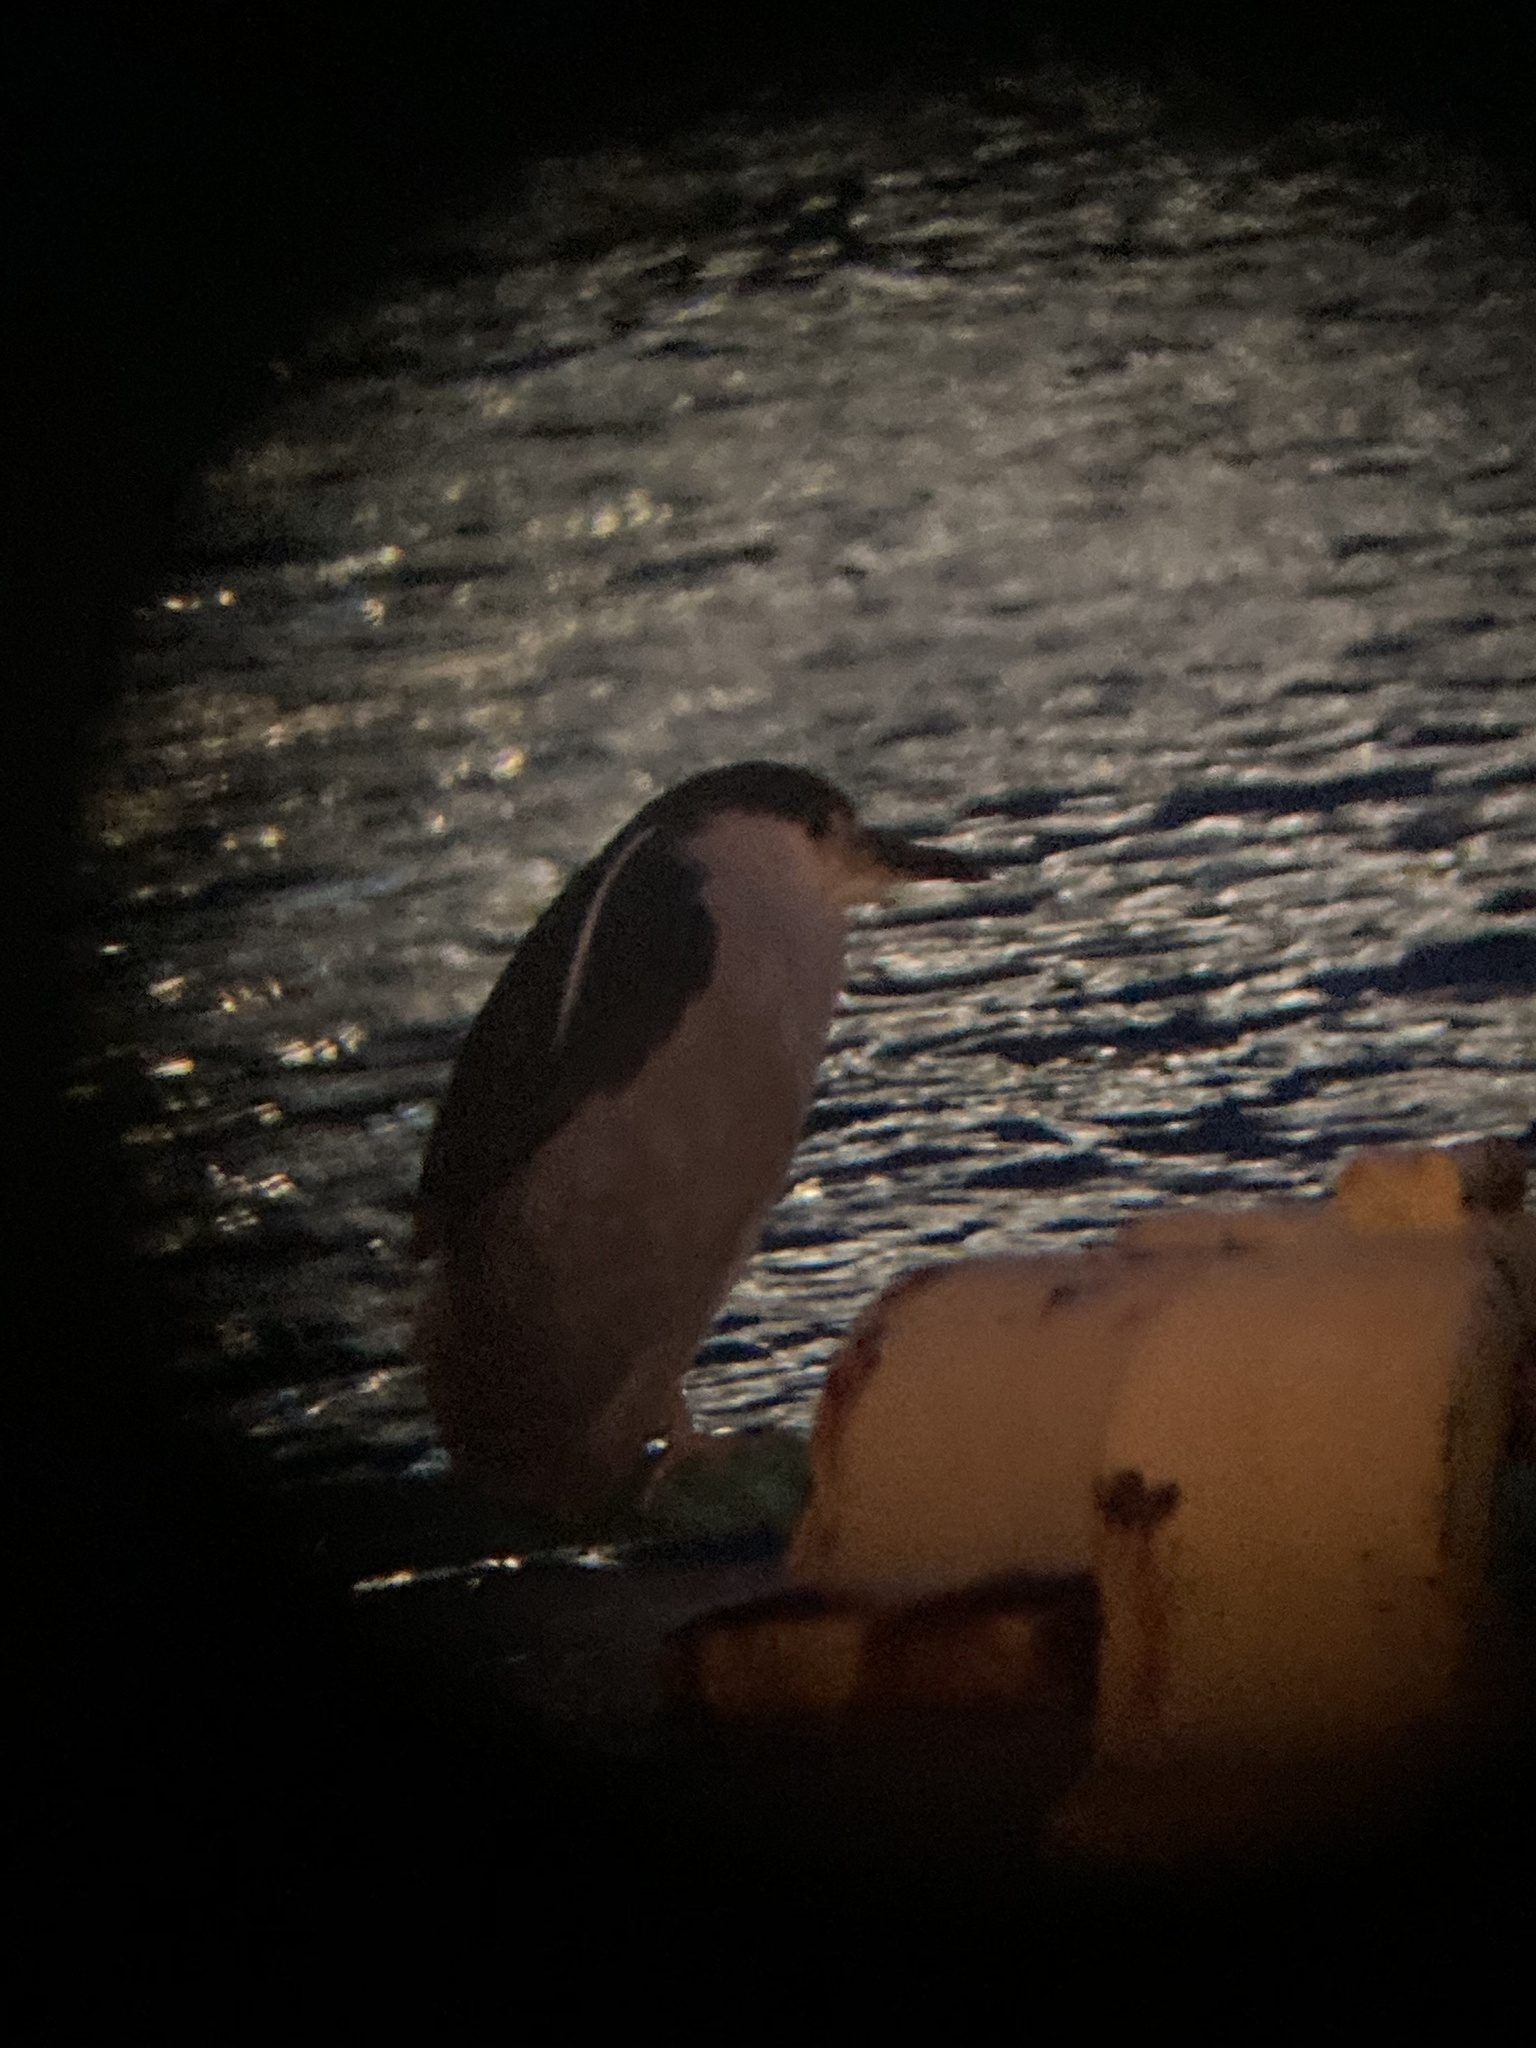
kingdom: Animalia
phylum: Chordata
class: Aves
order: Pelecaniformes
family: Ardeidae
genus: Nycticorax
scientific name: Nycticorax nycticorax
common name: Black-crowned night heron
